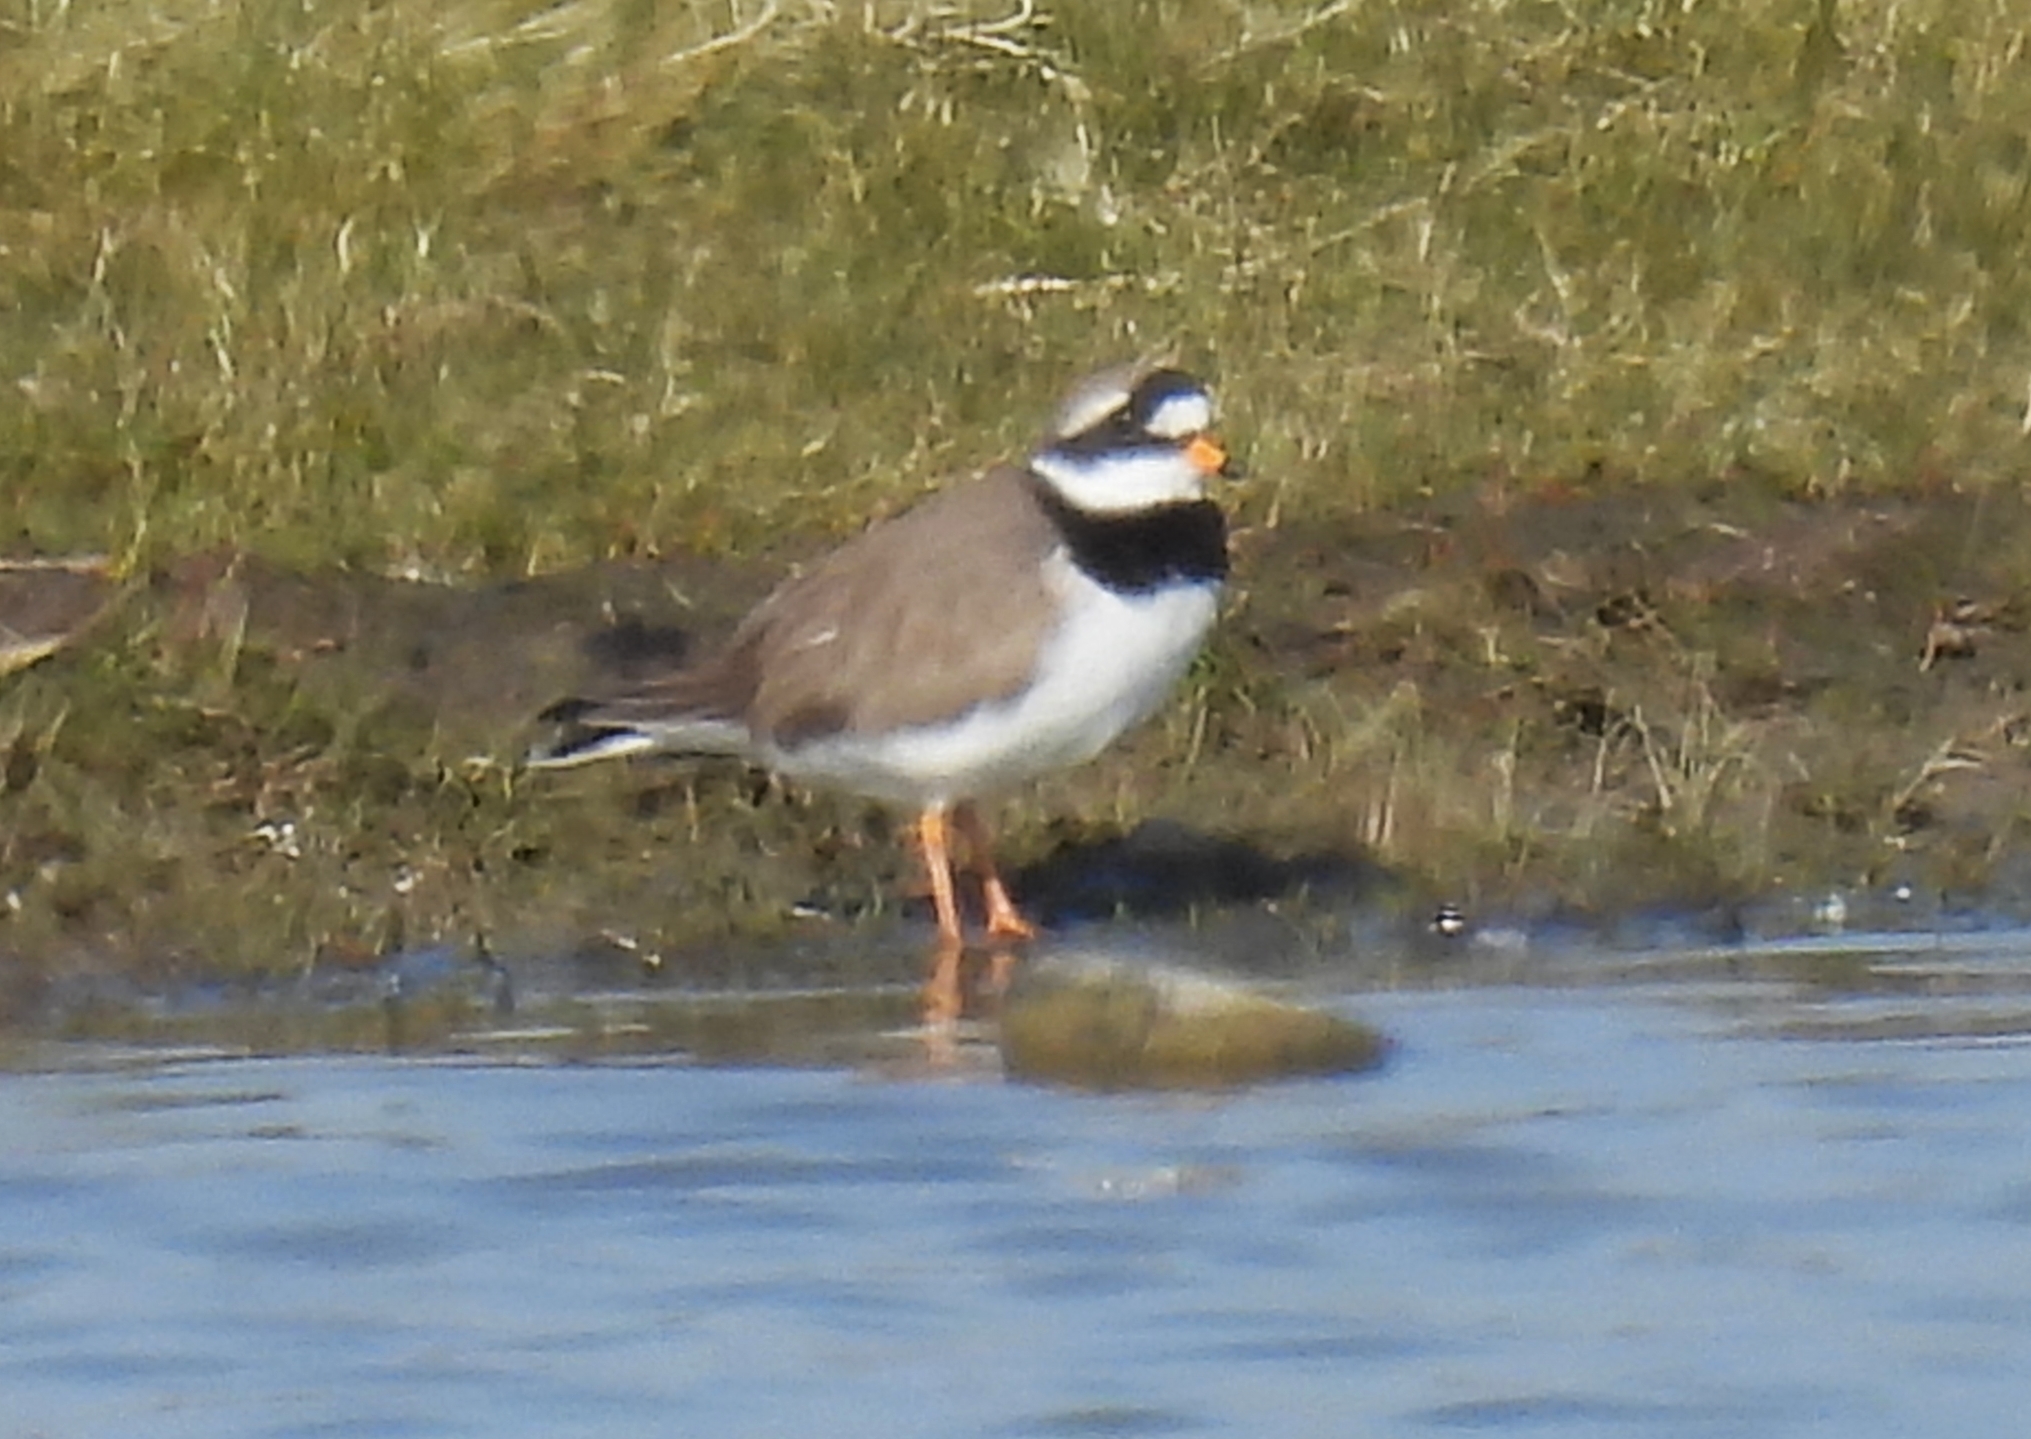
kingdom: Animalia
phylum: Chordata
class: Aves
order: Charadriiformes
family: Charadriidae
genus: Charadrius
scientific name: Charadrius hiaticula
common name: Common ringed plover
